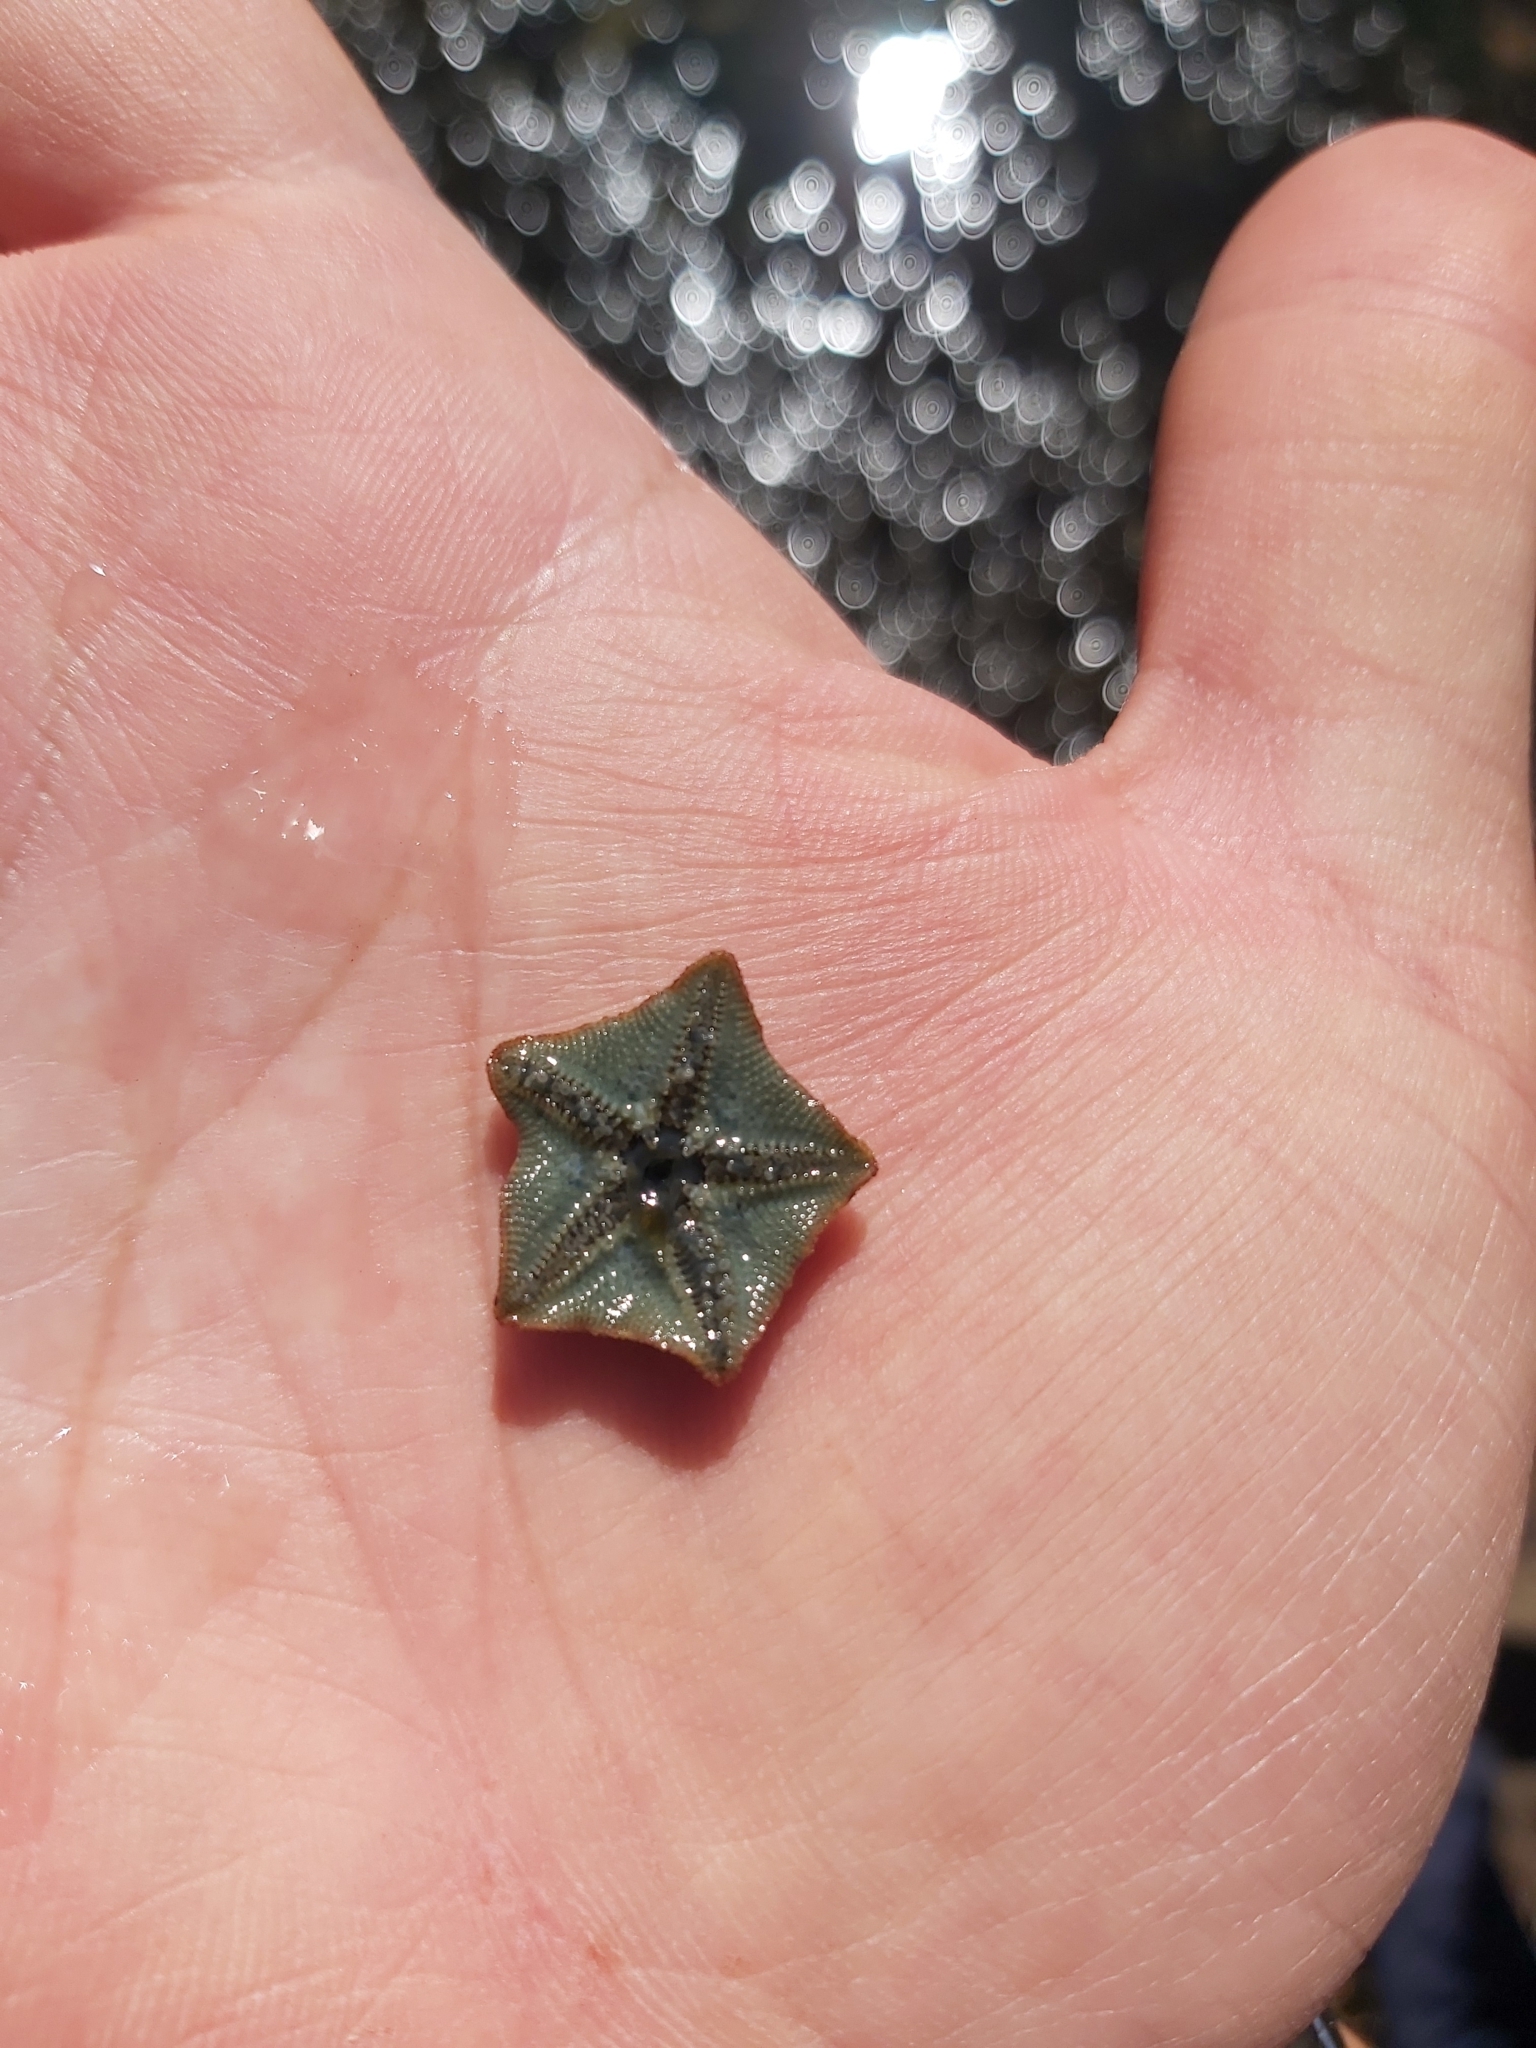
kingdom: Animalia
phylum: Echinodermata
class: Asteroidea
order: Valvatida
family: Asterinidae
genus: Parvulastra
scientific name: Parvulastra exigua
